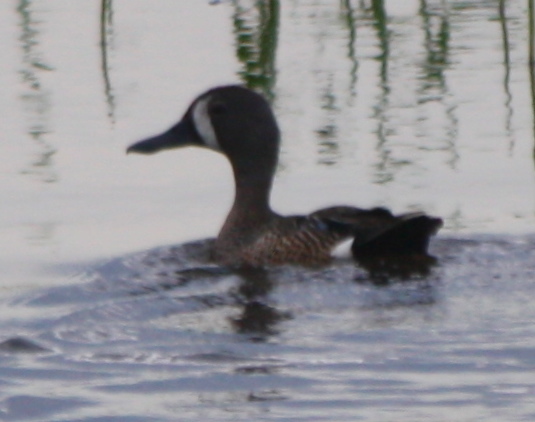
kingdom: Animalia
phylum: Chordata
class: Aves
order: Anseriformes
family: Anatidae
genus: Spatula
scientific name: Spatula discors
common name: Blue-winged teal
